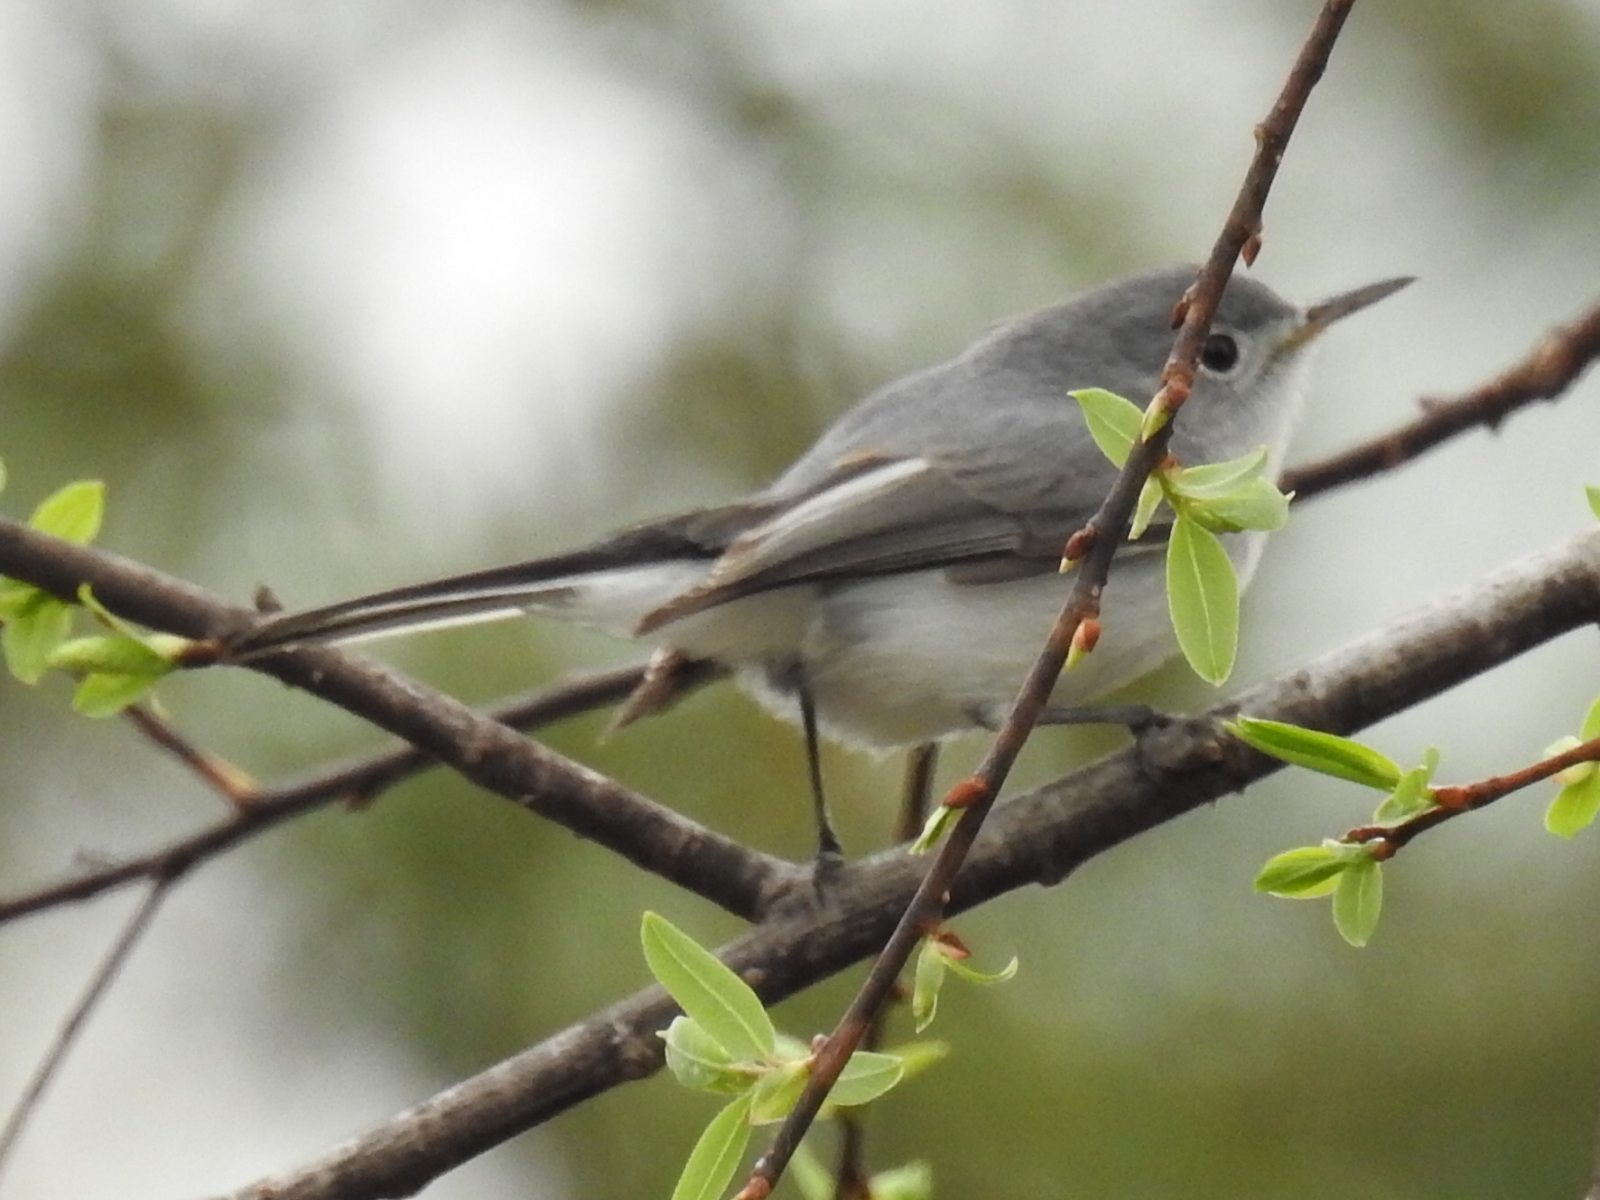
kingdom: Animalia
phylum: Chordata
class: Aves
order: Passeriformes
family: Polioptilidae
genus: Polioptila
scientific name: Polioptila caerulea
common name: Blue-gray gnatcatcher
